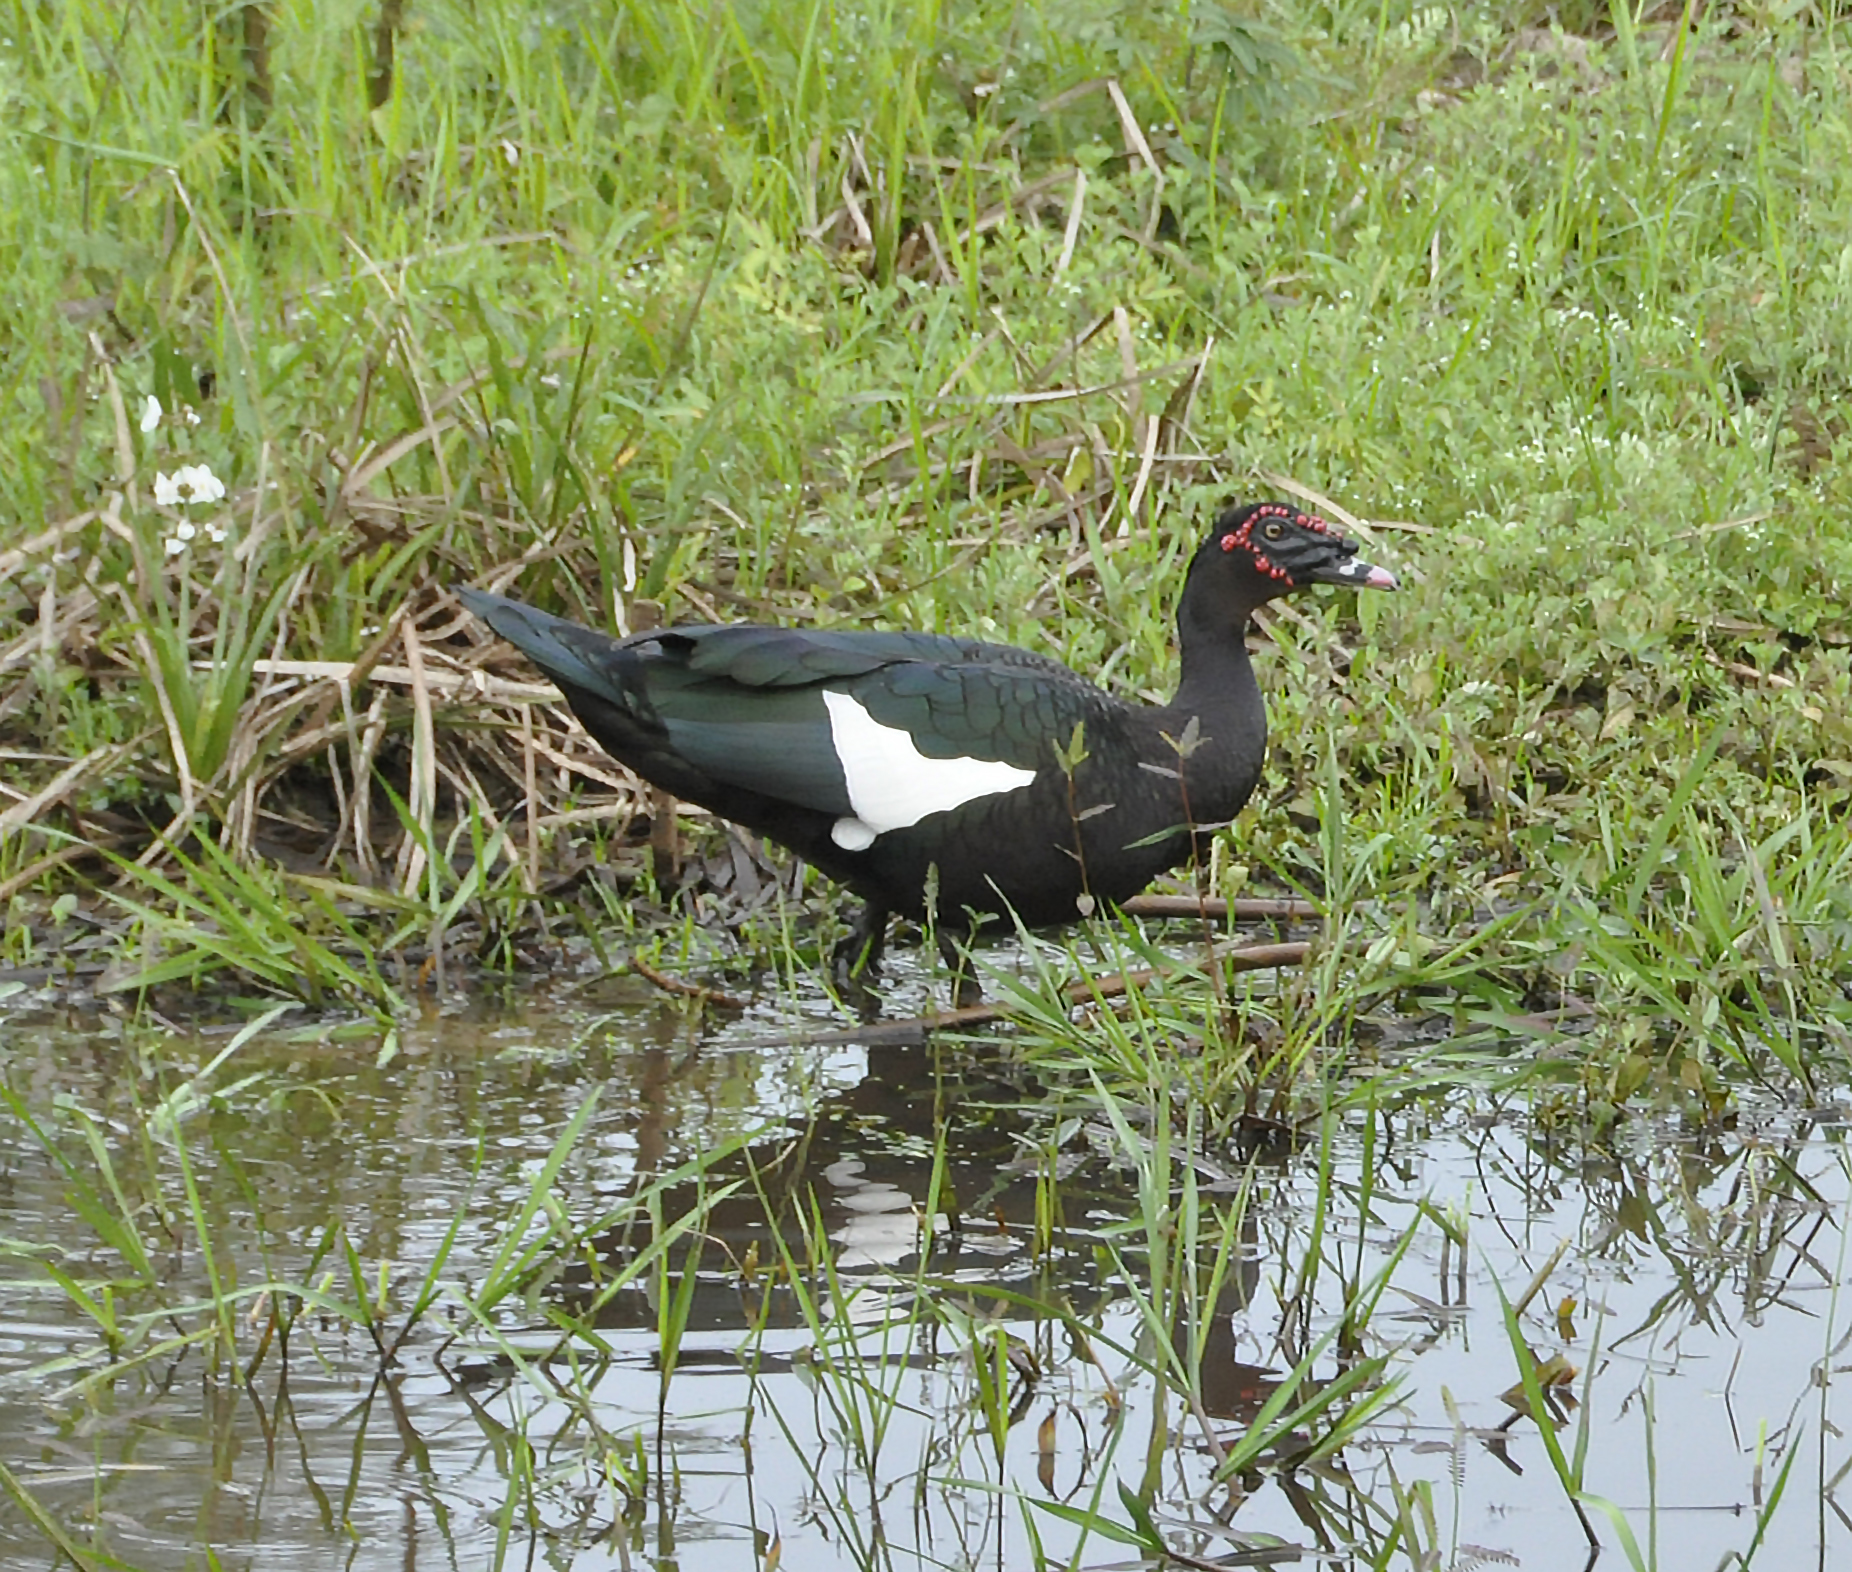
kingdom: Animalia
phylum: Chordata
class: Aves
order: Anseriformes
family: Anatidae
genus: Cairina
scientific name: Cairina moschata
